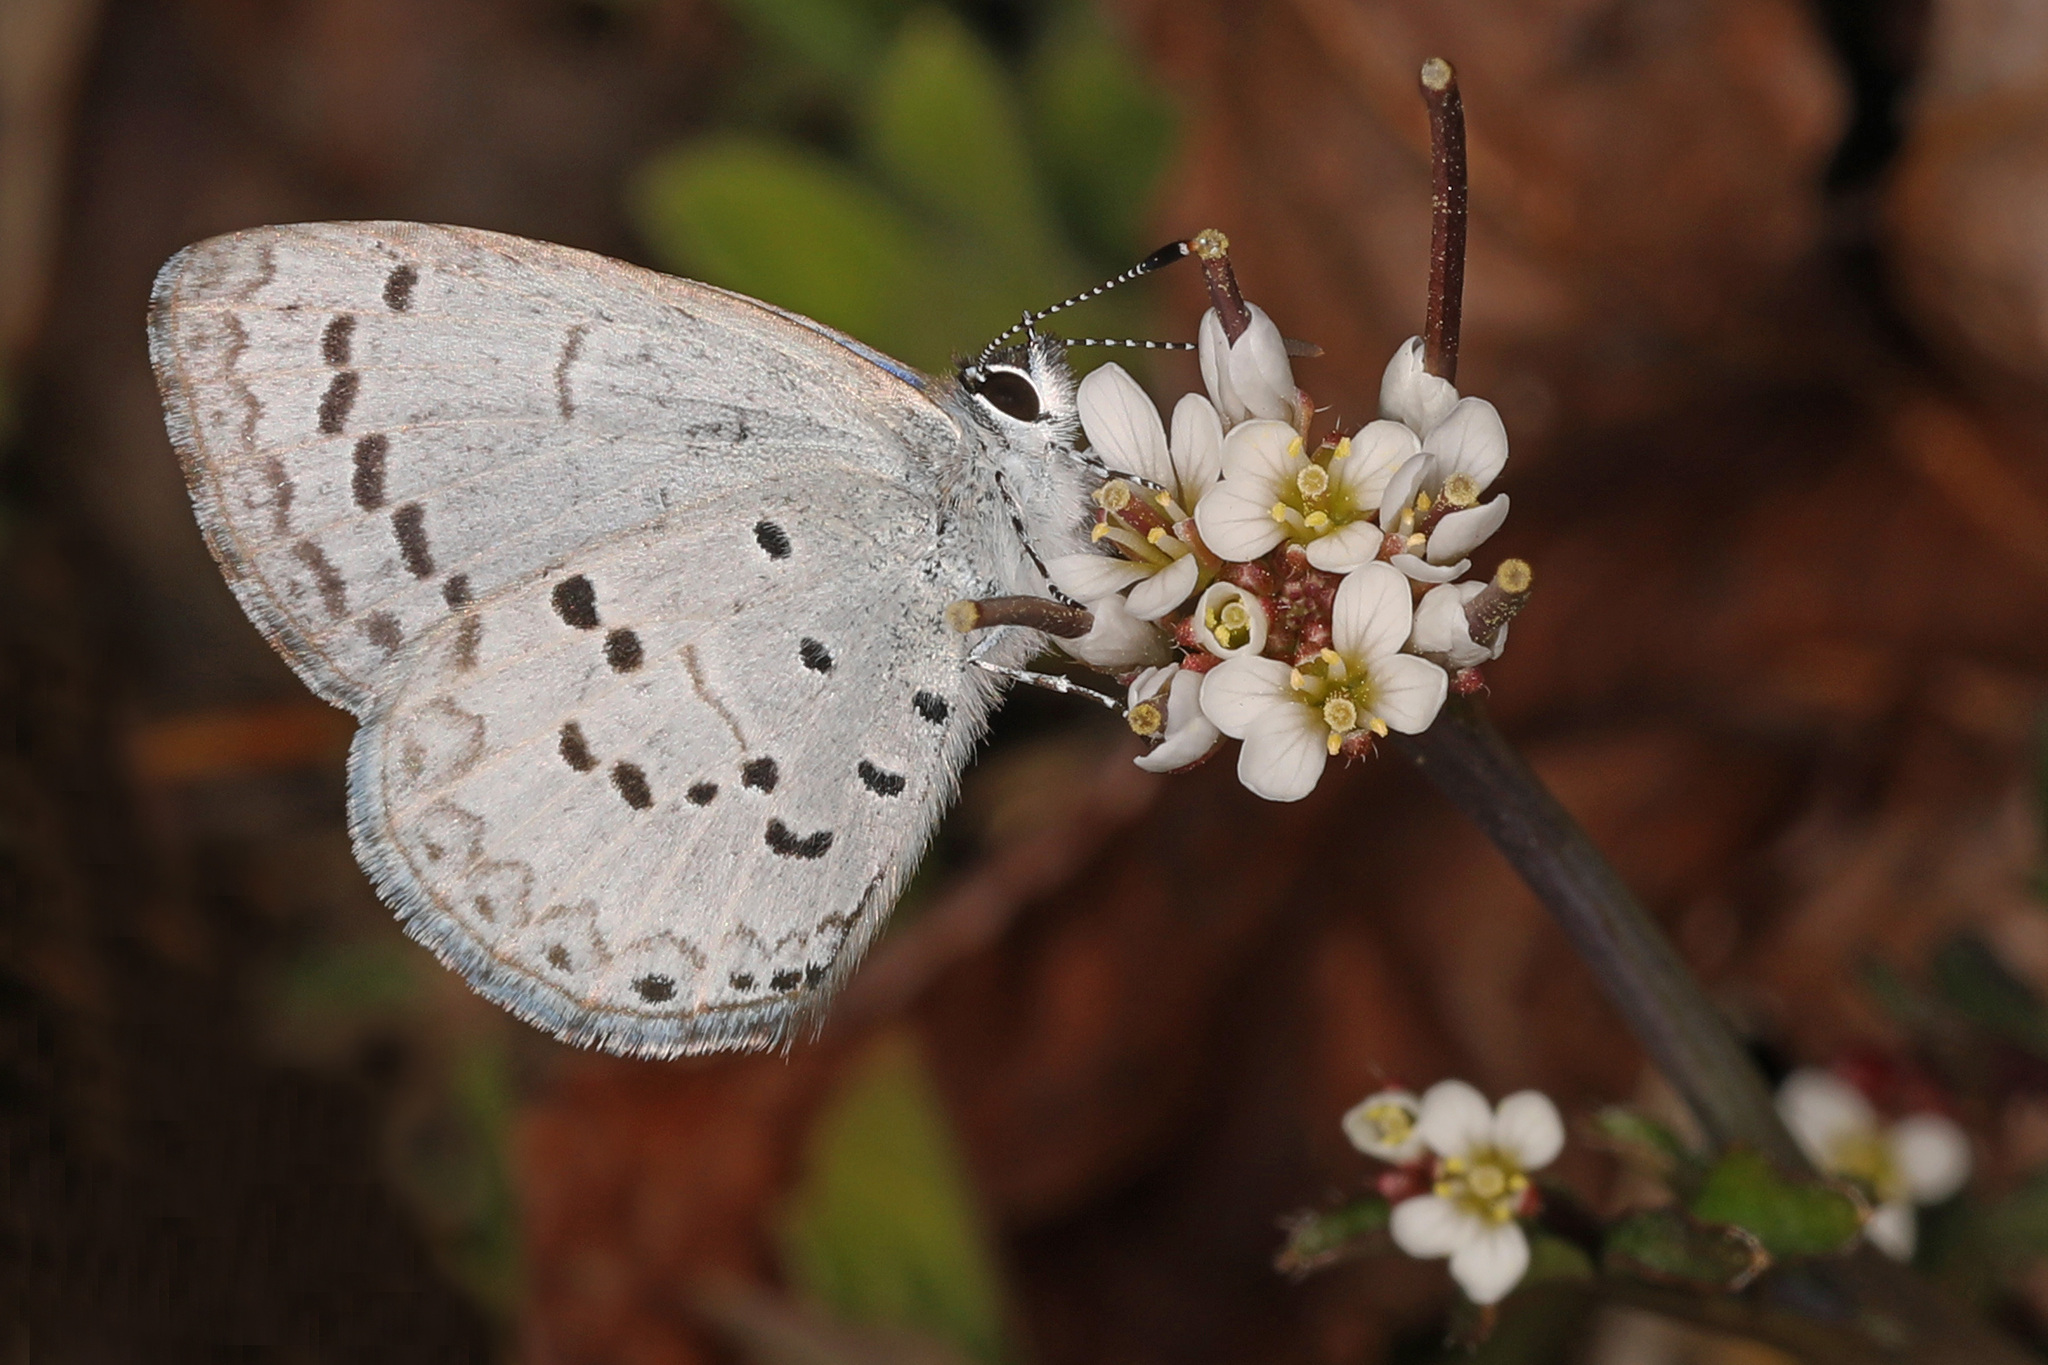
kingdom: Animalia
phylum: Arthropoda
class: Insecta
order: Lepidoptera
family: Lycaenidae
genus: Cyaniris
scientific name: Cyaniris neglecta
